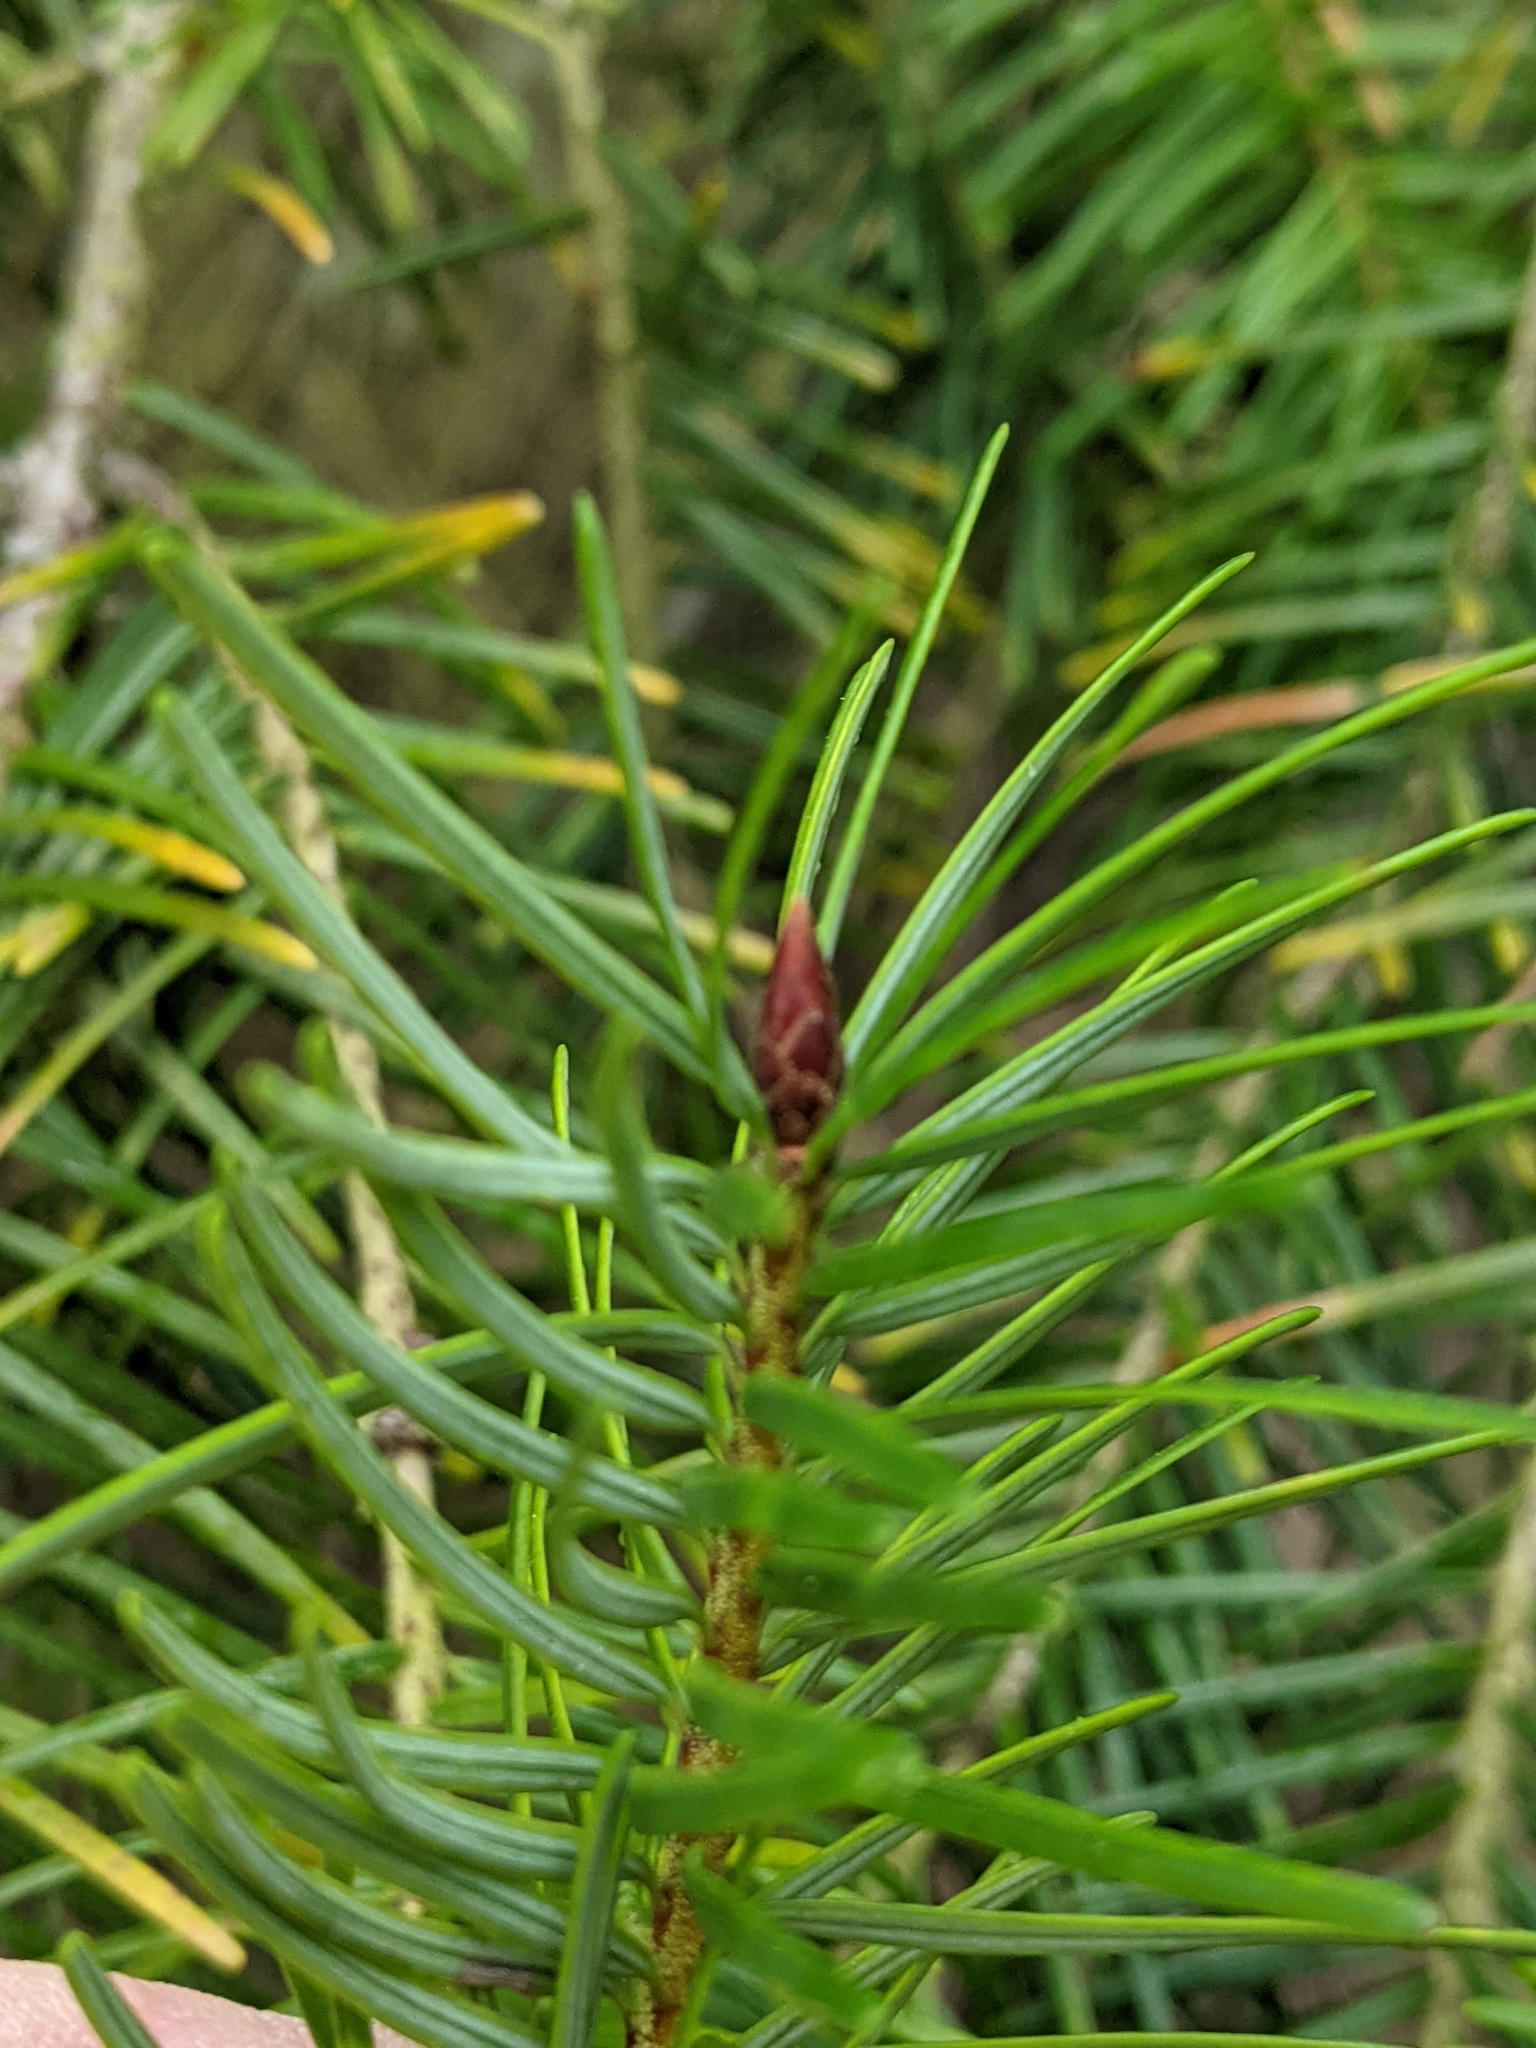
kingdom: Plantae
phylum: Tracheophyta
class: Pinopsida
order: Pinales
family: Pinaceae
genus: Pseudotsuga
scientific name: Pseudotsuga menziesii
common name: Douglas fir
